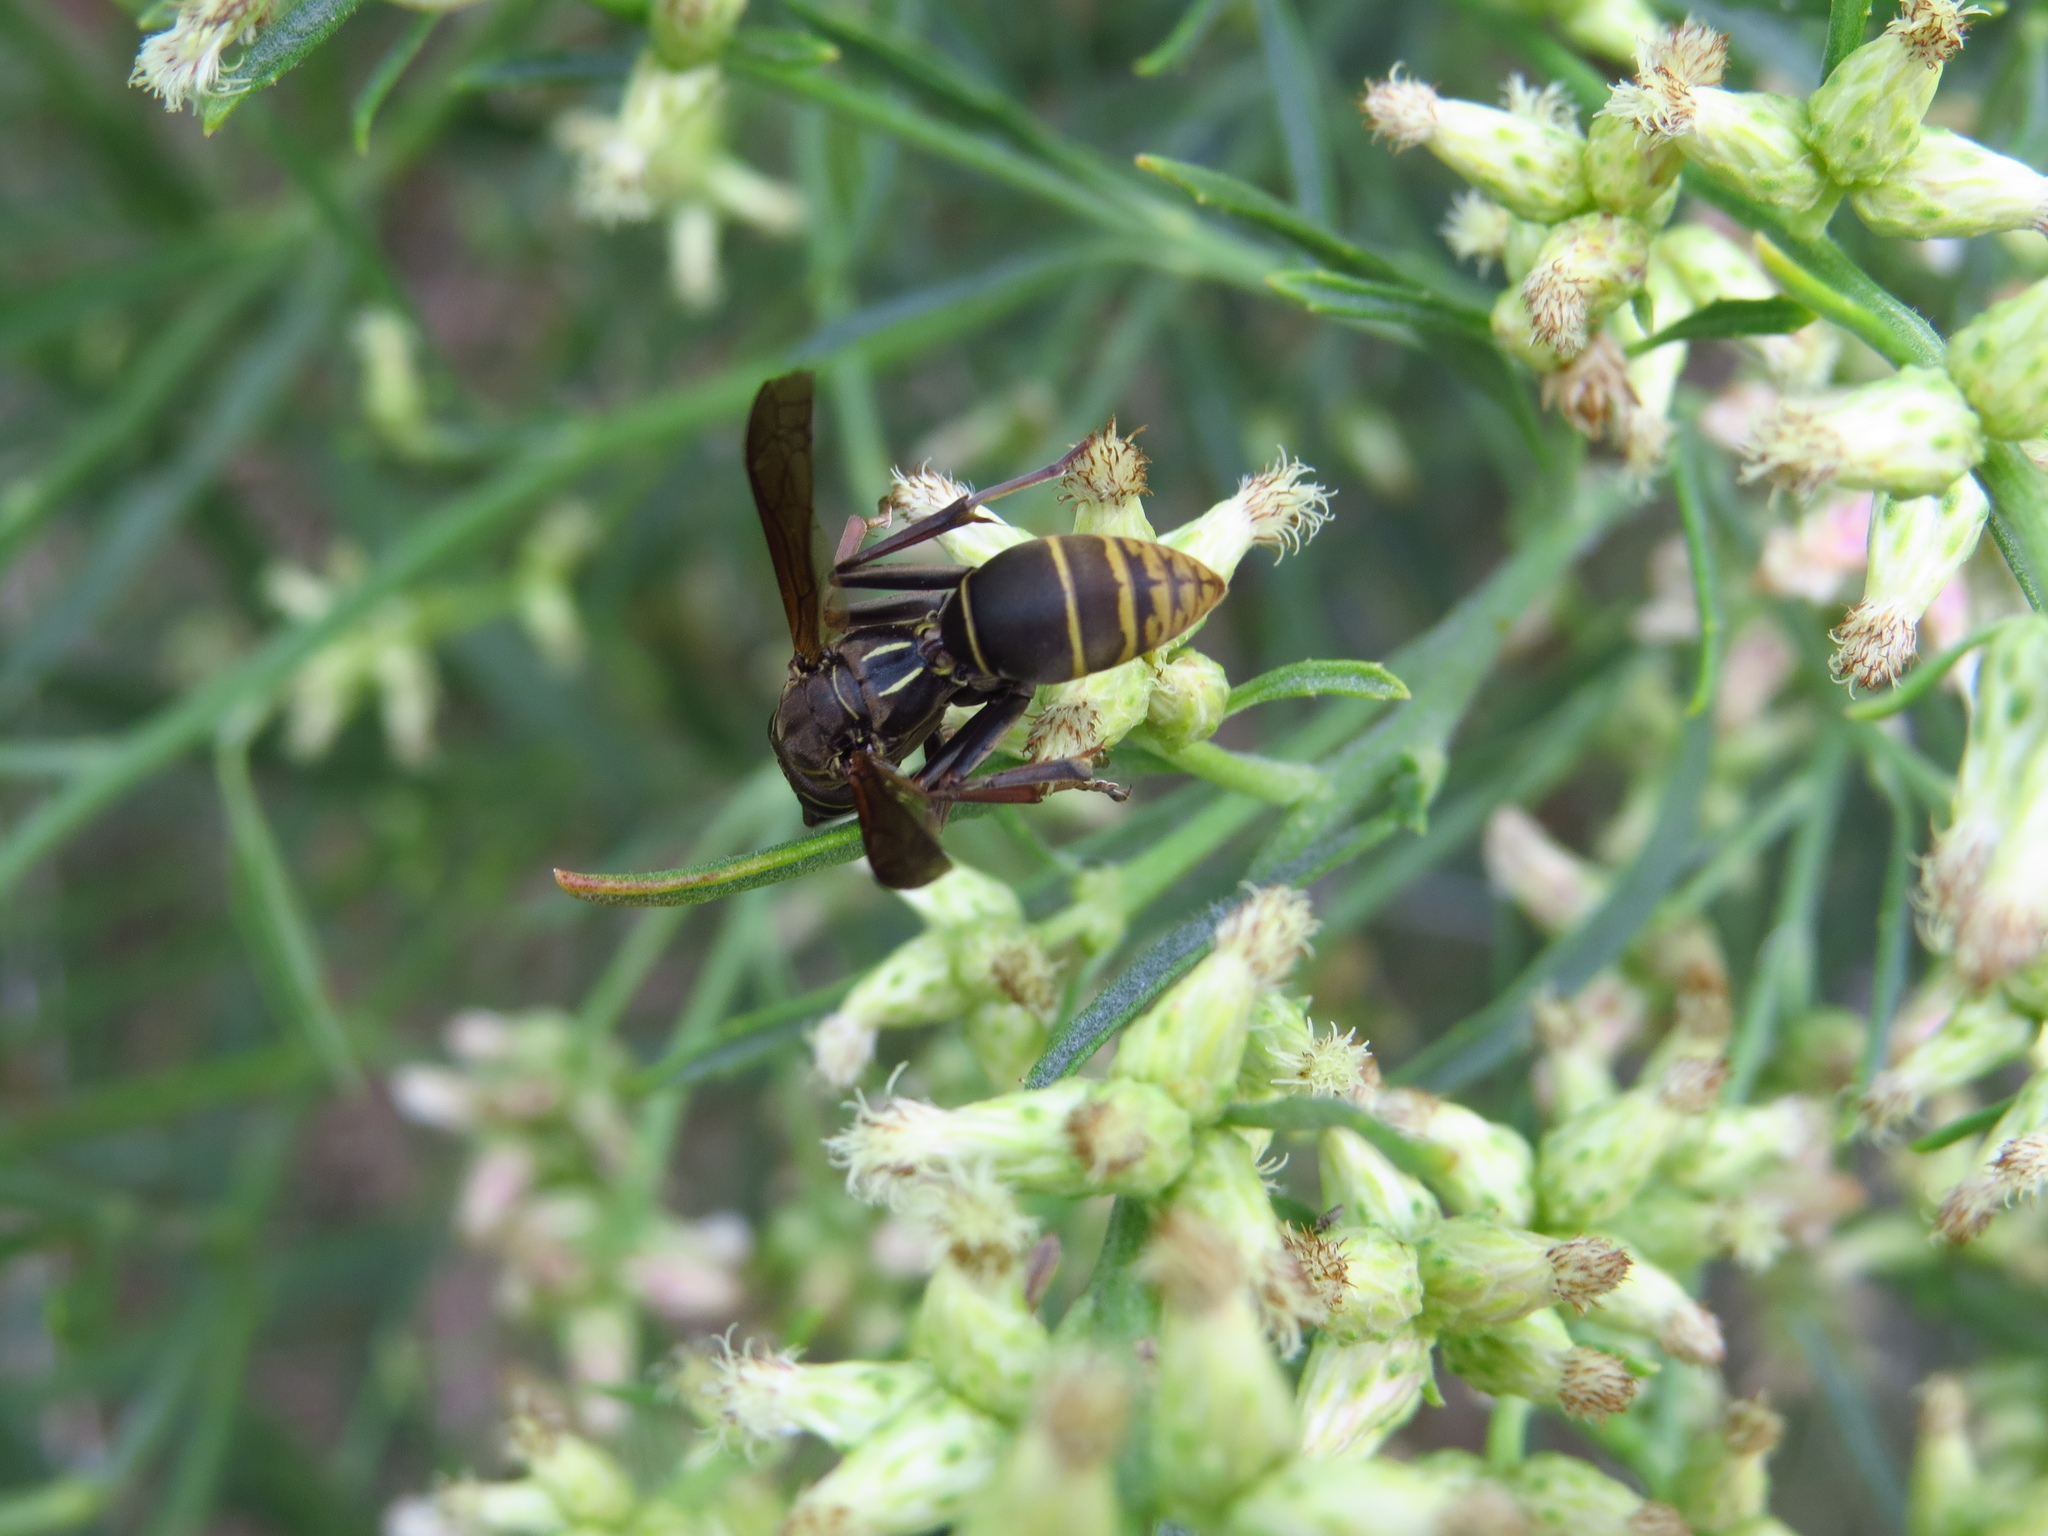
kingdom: Animalia
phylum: Arthropoda
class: Insecta
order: Hymenoptera
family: Eumenidae
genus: Polistes
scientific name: Polistes cinerascens
